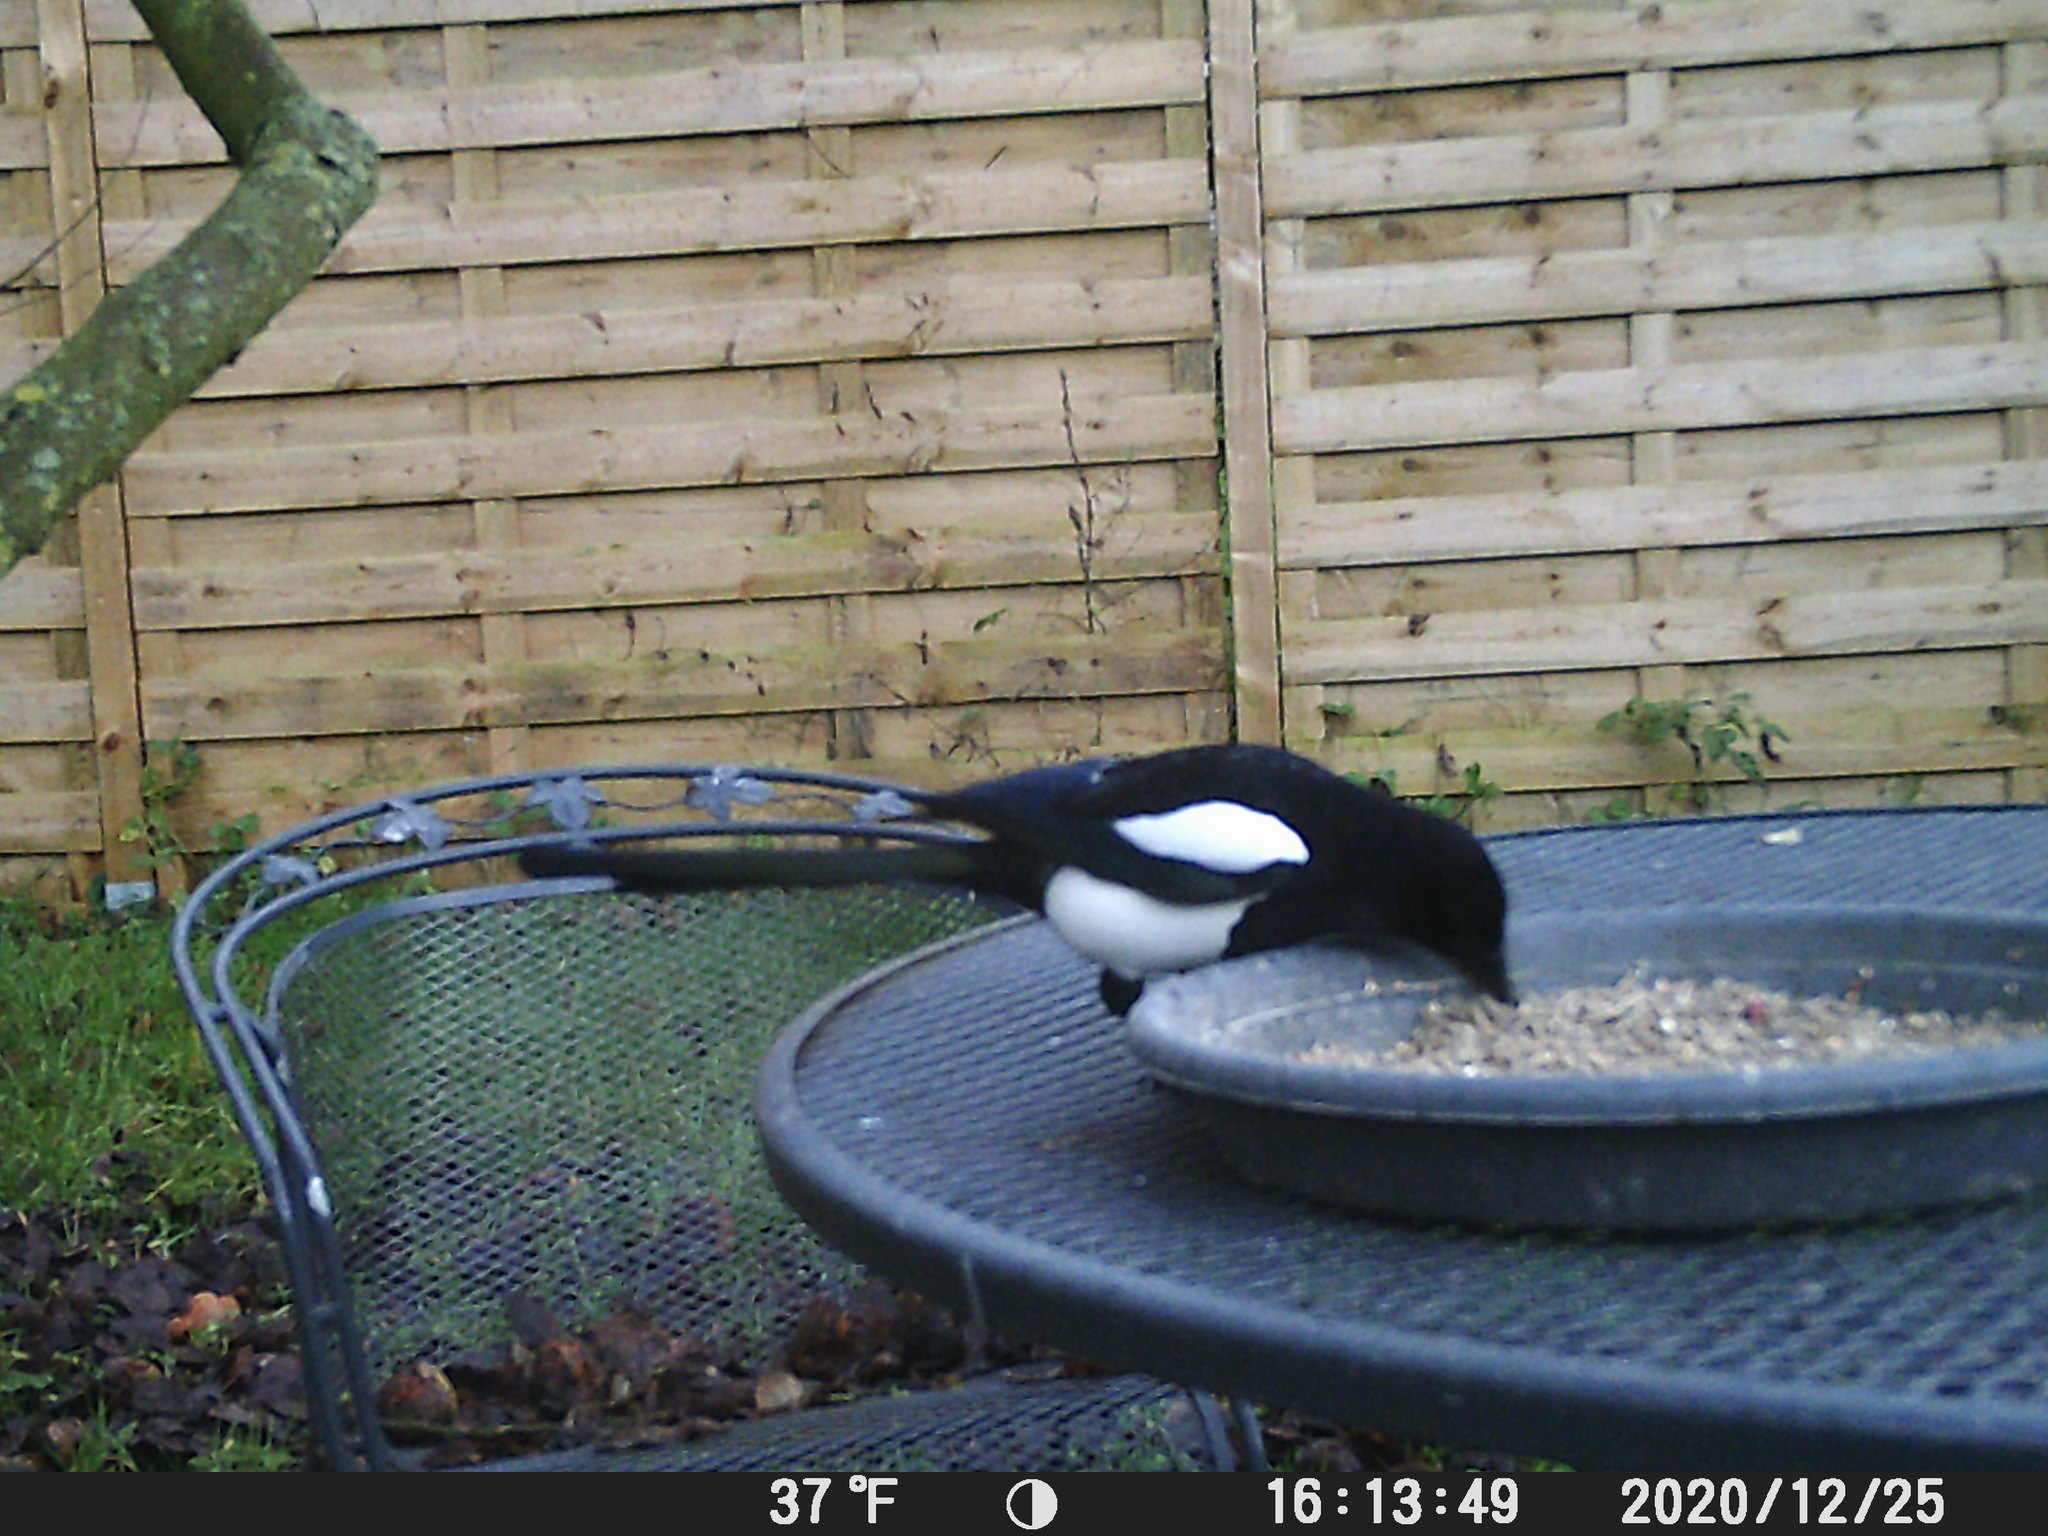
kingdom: Animalia
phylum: Chordata
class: Aves
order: Passeriformes
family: Corvidae
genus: Pica
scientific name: Pica pica
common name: Eurasian magpie
